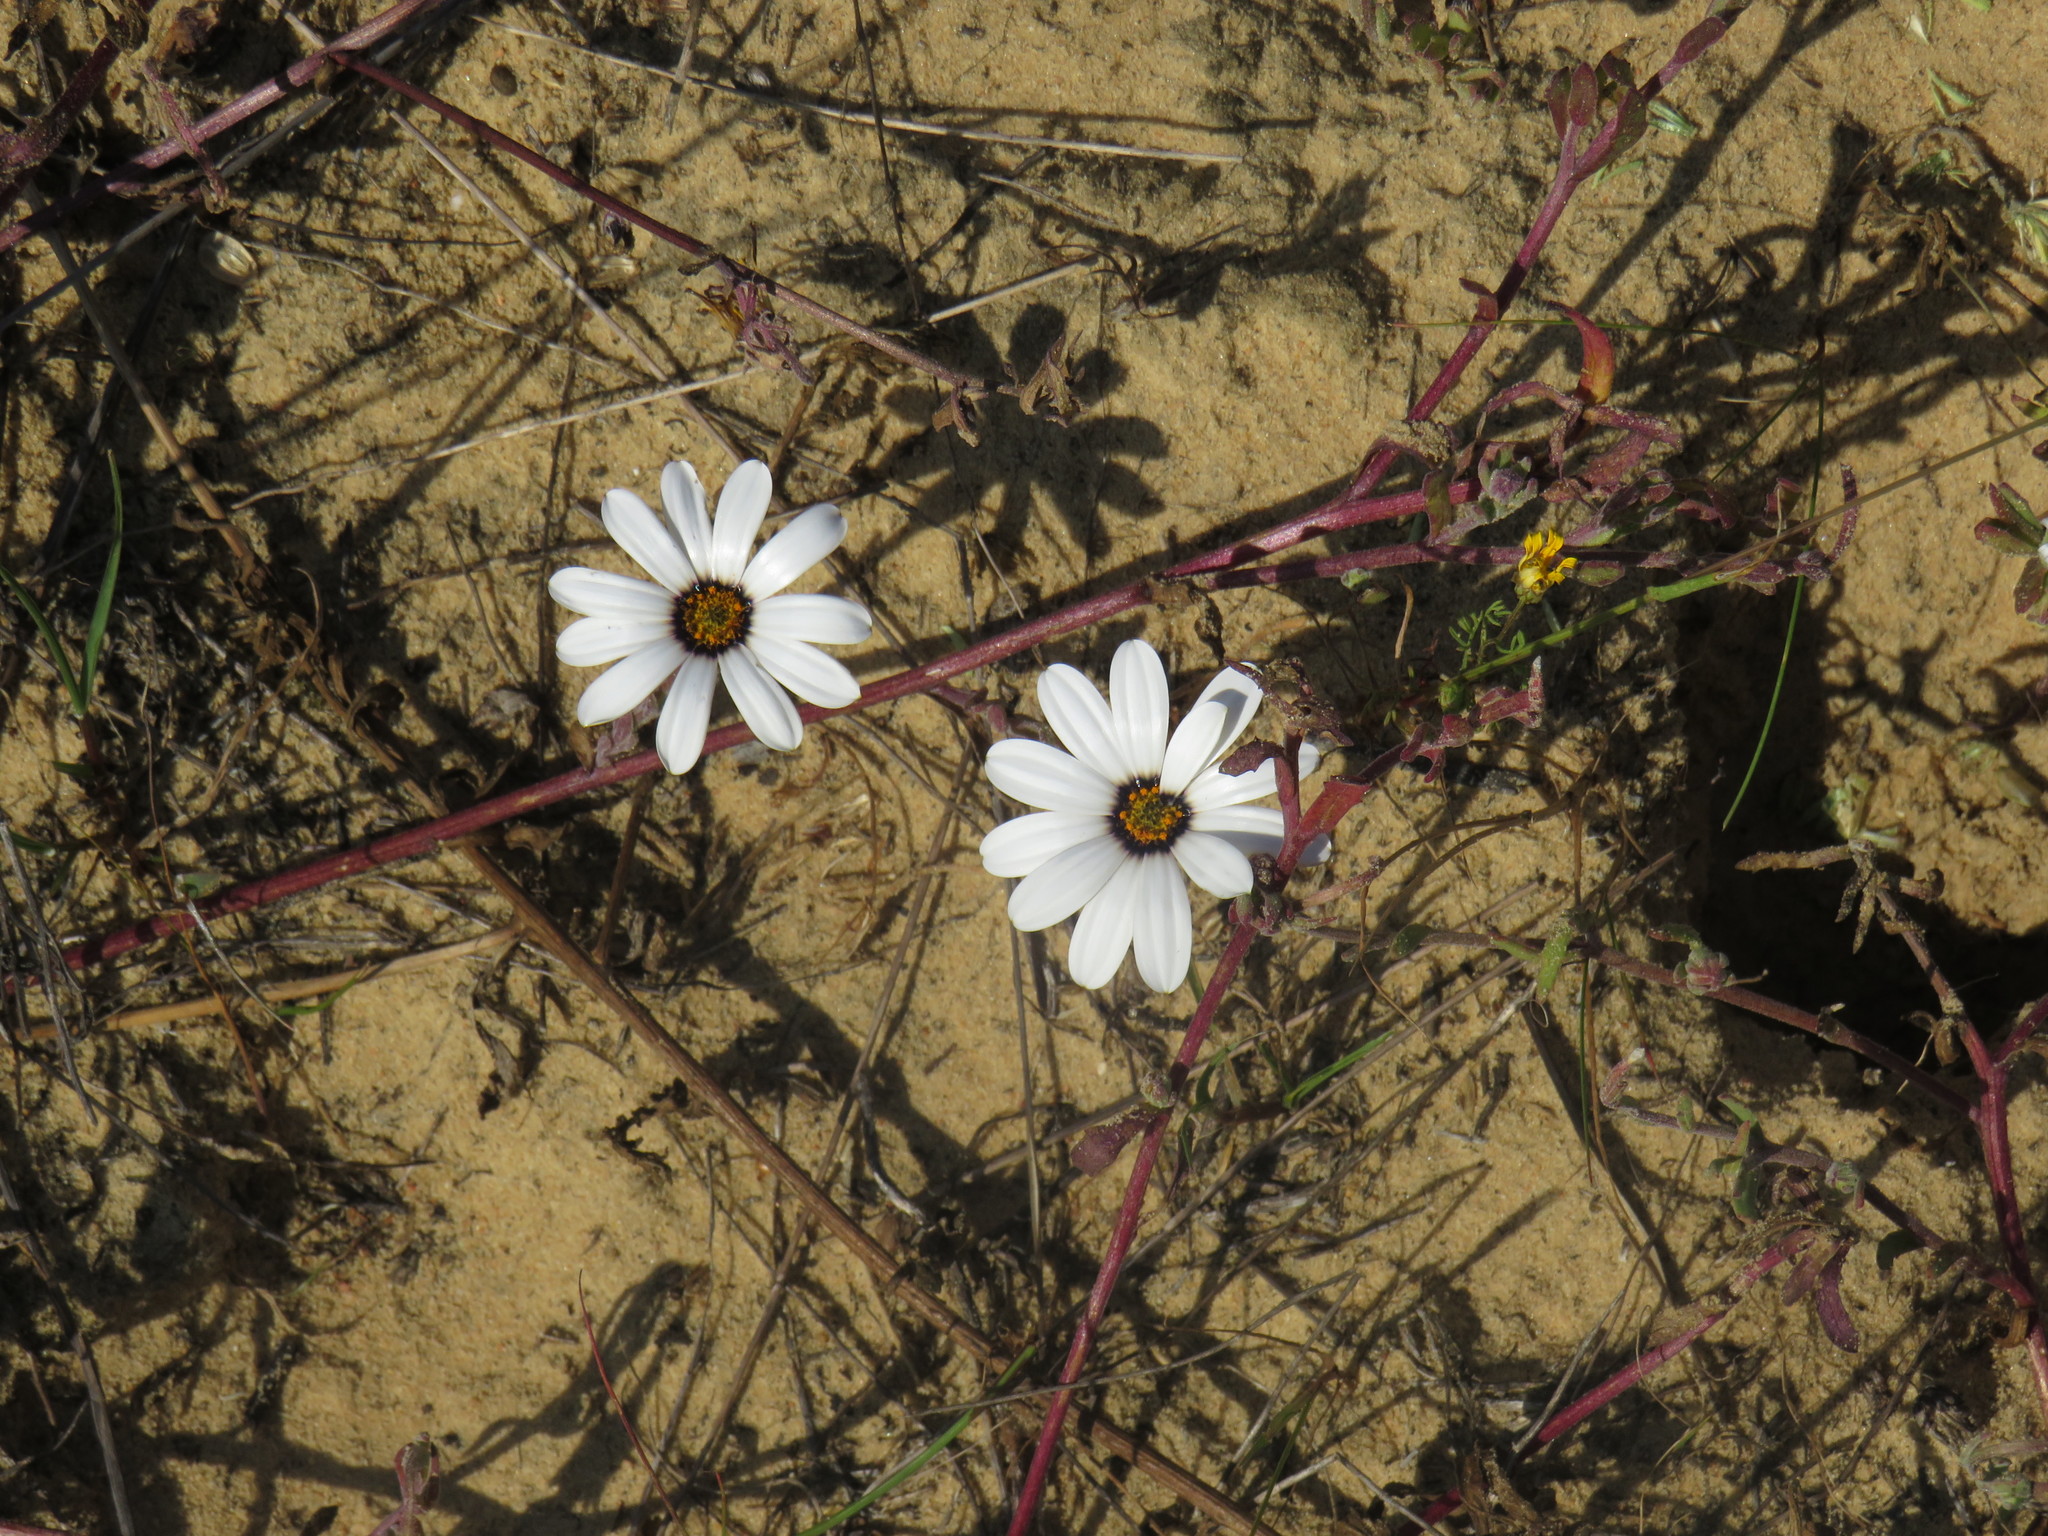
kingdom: Plantae
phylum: Tracheophyta
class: Magnoliopsida
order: Asterales
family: Asteraceae
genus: Dimorphotheca
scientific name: Dimorphotheca pluvialis
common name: Weather prophet
